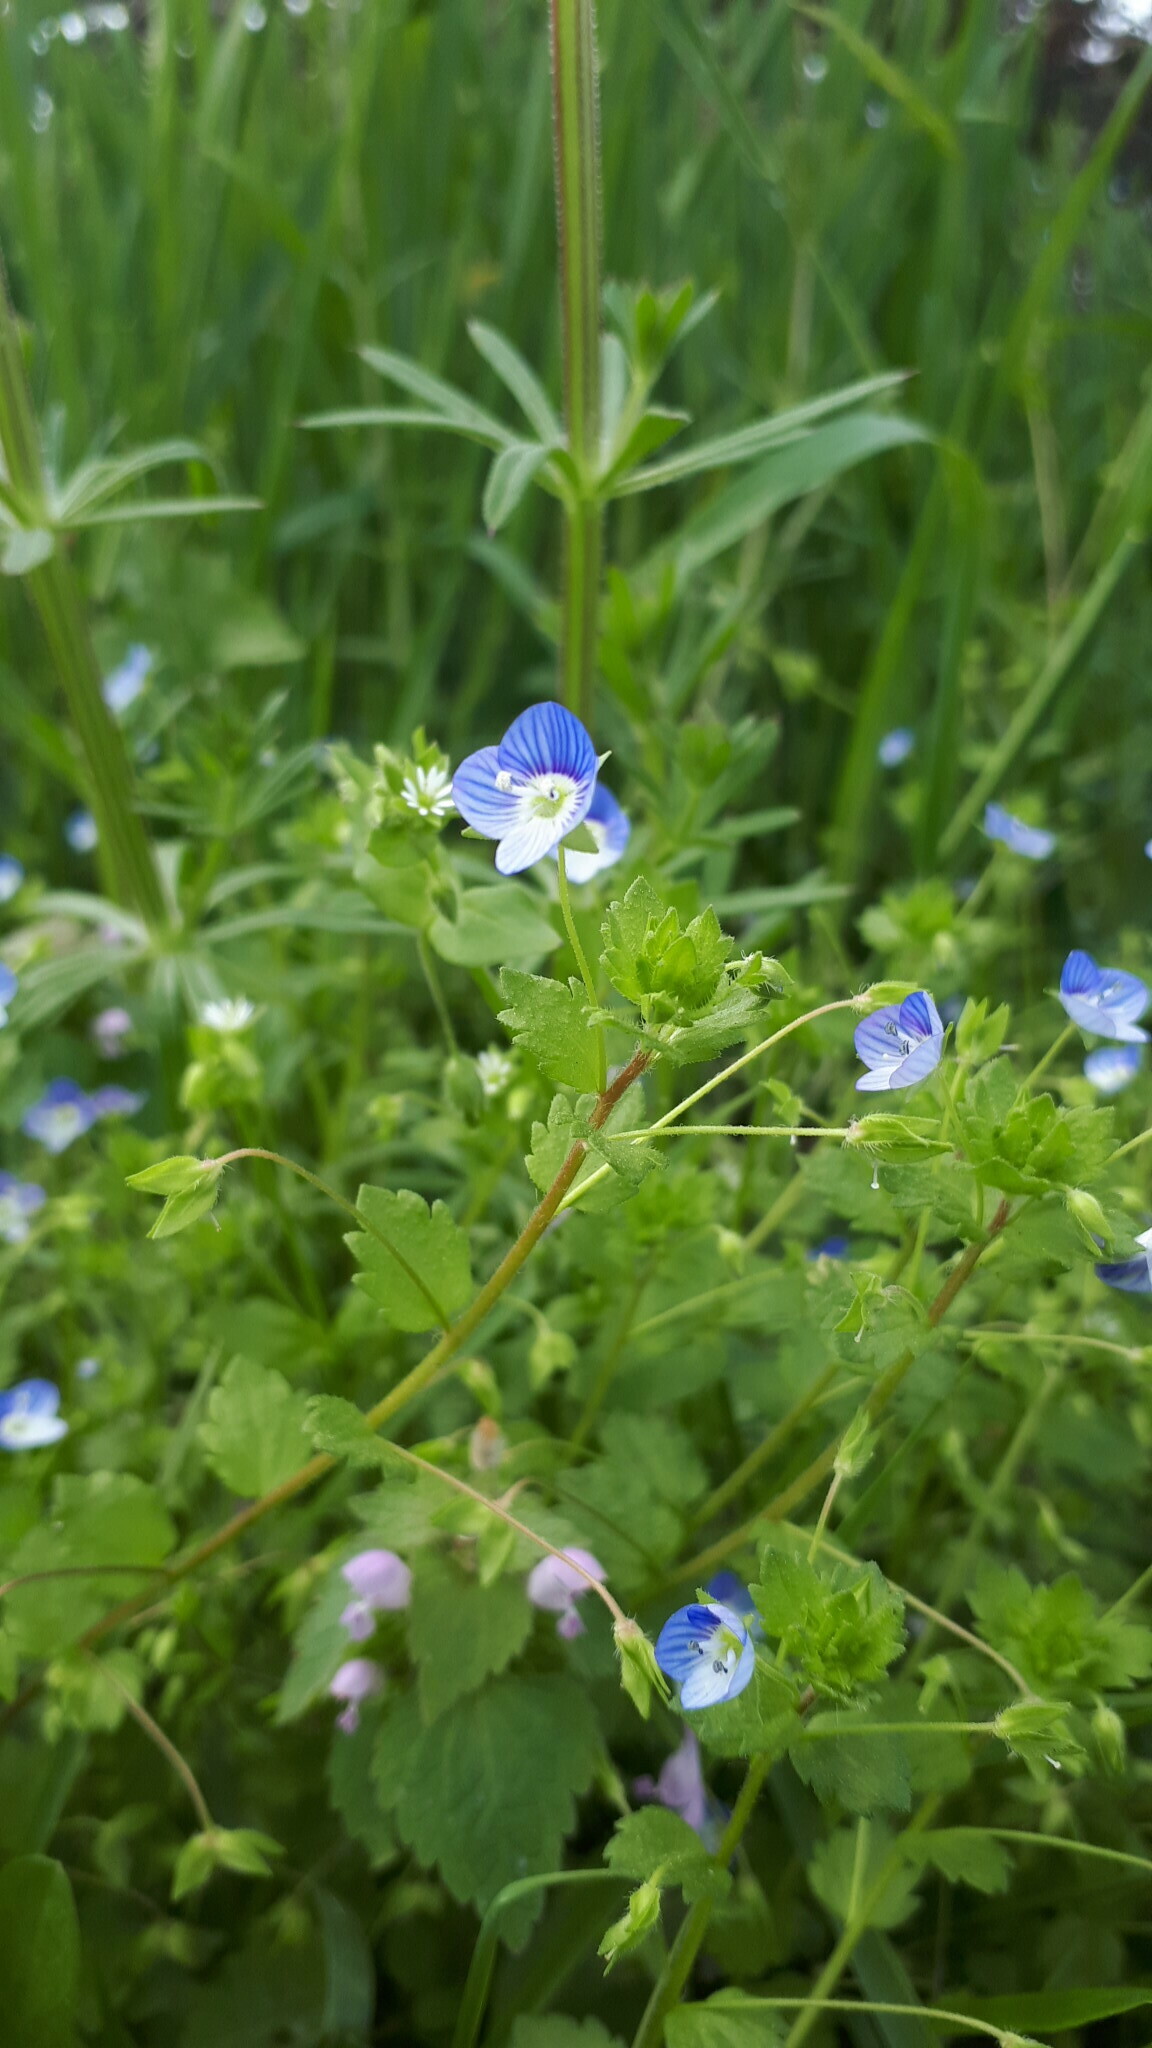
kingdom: Plantae
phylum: Tracheophyta
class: Magnoliopsida
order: Lamiales
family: Plantaginaceae
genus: Veronica
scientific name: Veronica persica
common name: Common field-speedwell
